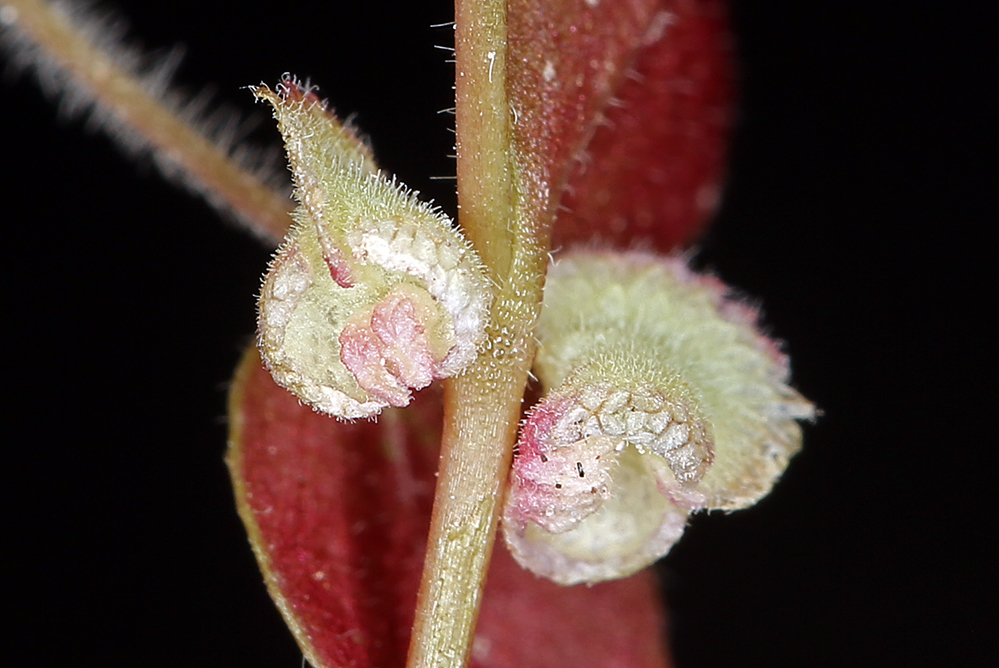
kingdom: Plantae
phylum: Tracheophyta
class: Magnoliopsida
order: Caryophyllales
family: Polygonaceae
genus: Pterostegia
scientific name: Pterostegia drymarioides
